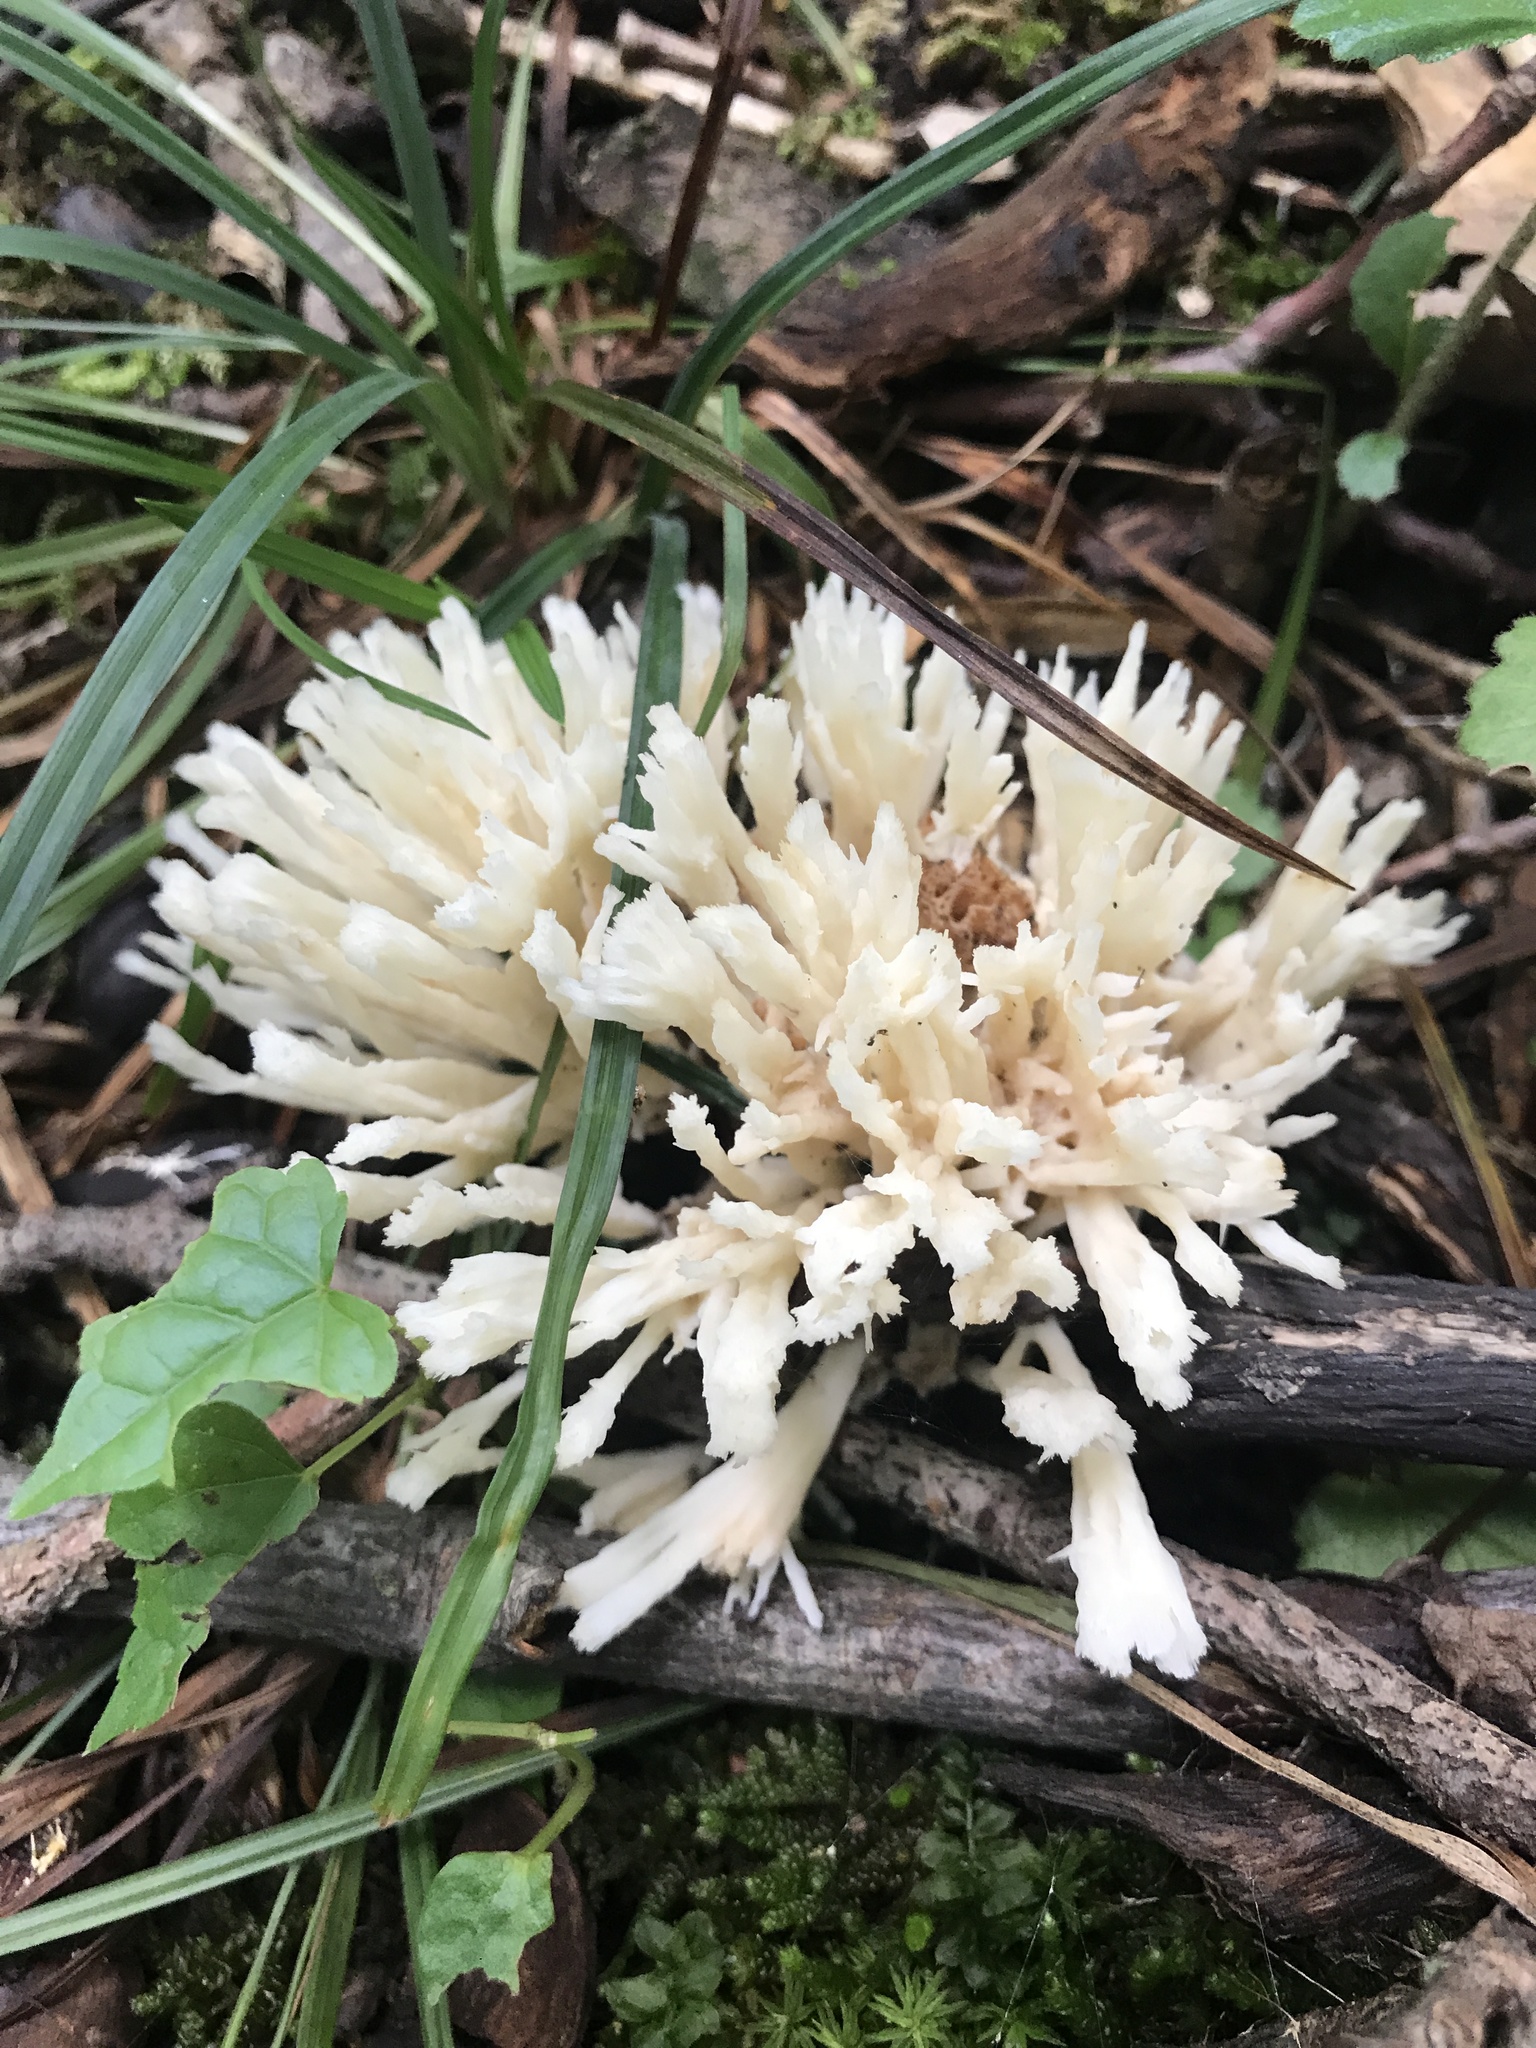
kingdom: Fungi
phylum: Basidiomycota
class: Agaricomycetes
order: Sebacinales
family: Sebacinaceae
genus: Sebacina
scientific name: Sebacina schweinitzii
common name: Jellied false coral fungus
